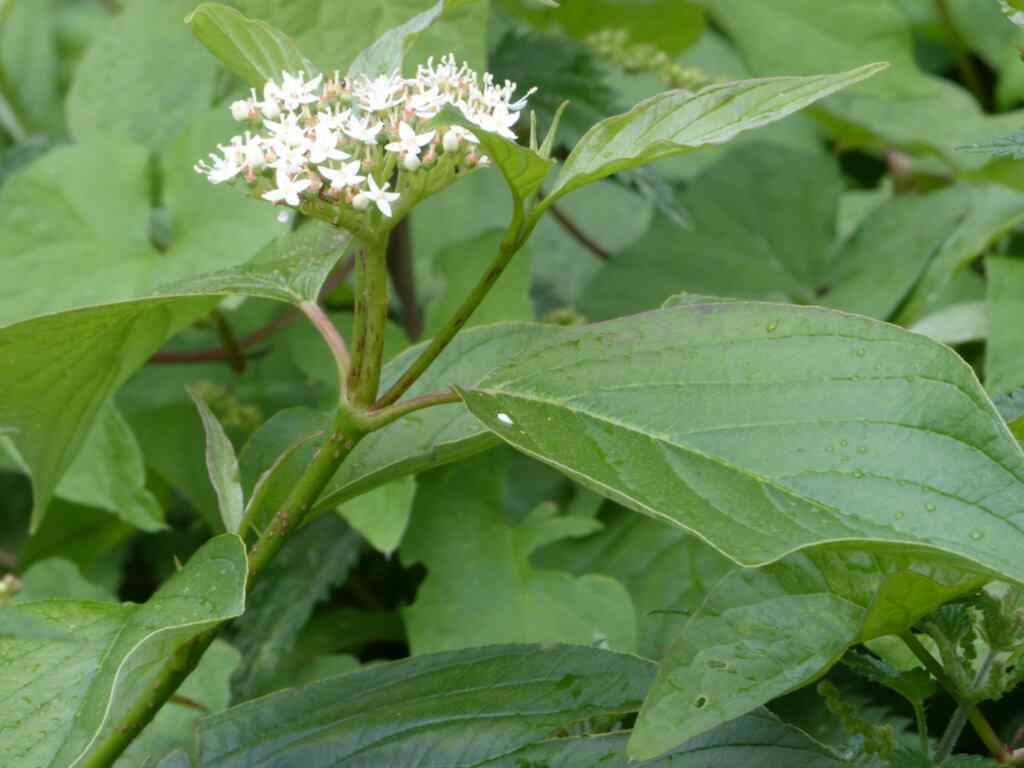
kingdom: Plantae
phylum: Tracheophyta
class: Magnoliopsida
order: Cornales
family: Cornaceae
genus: Cornus
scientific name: Cornus sanguinea
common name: Dogwood
